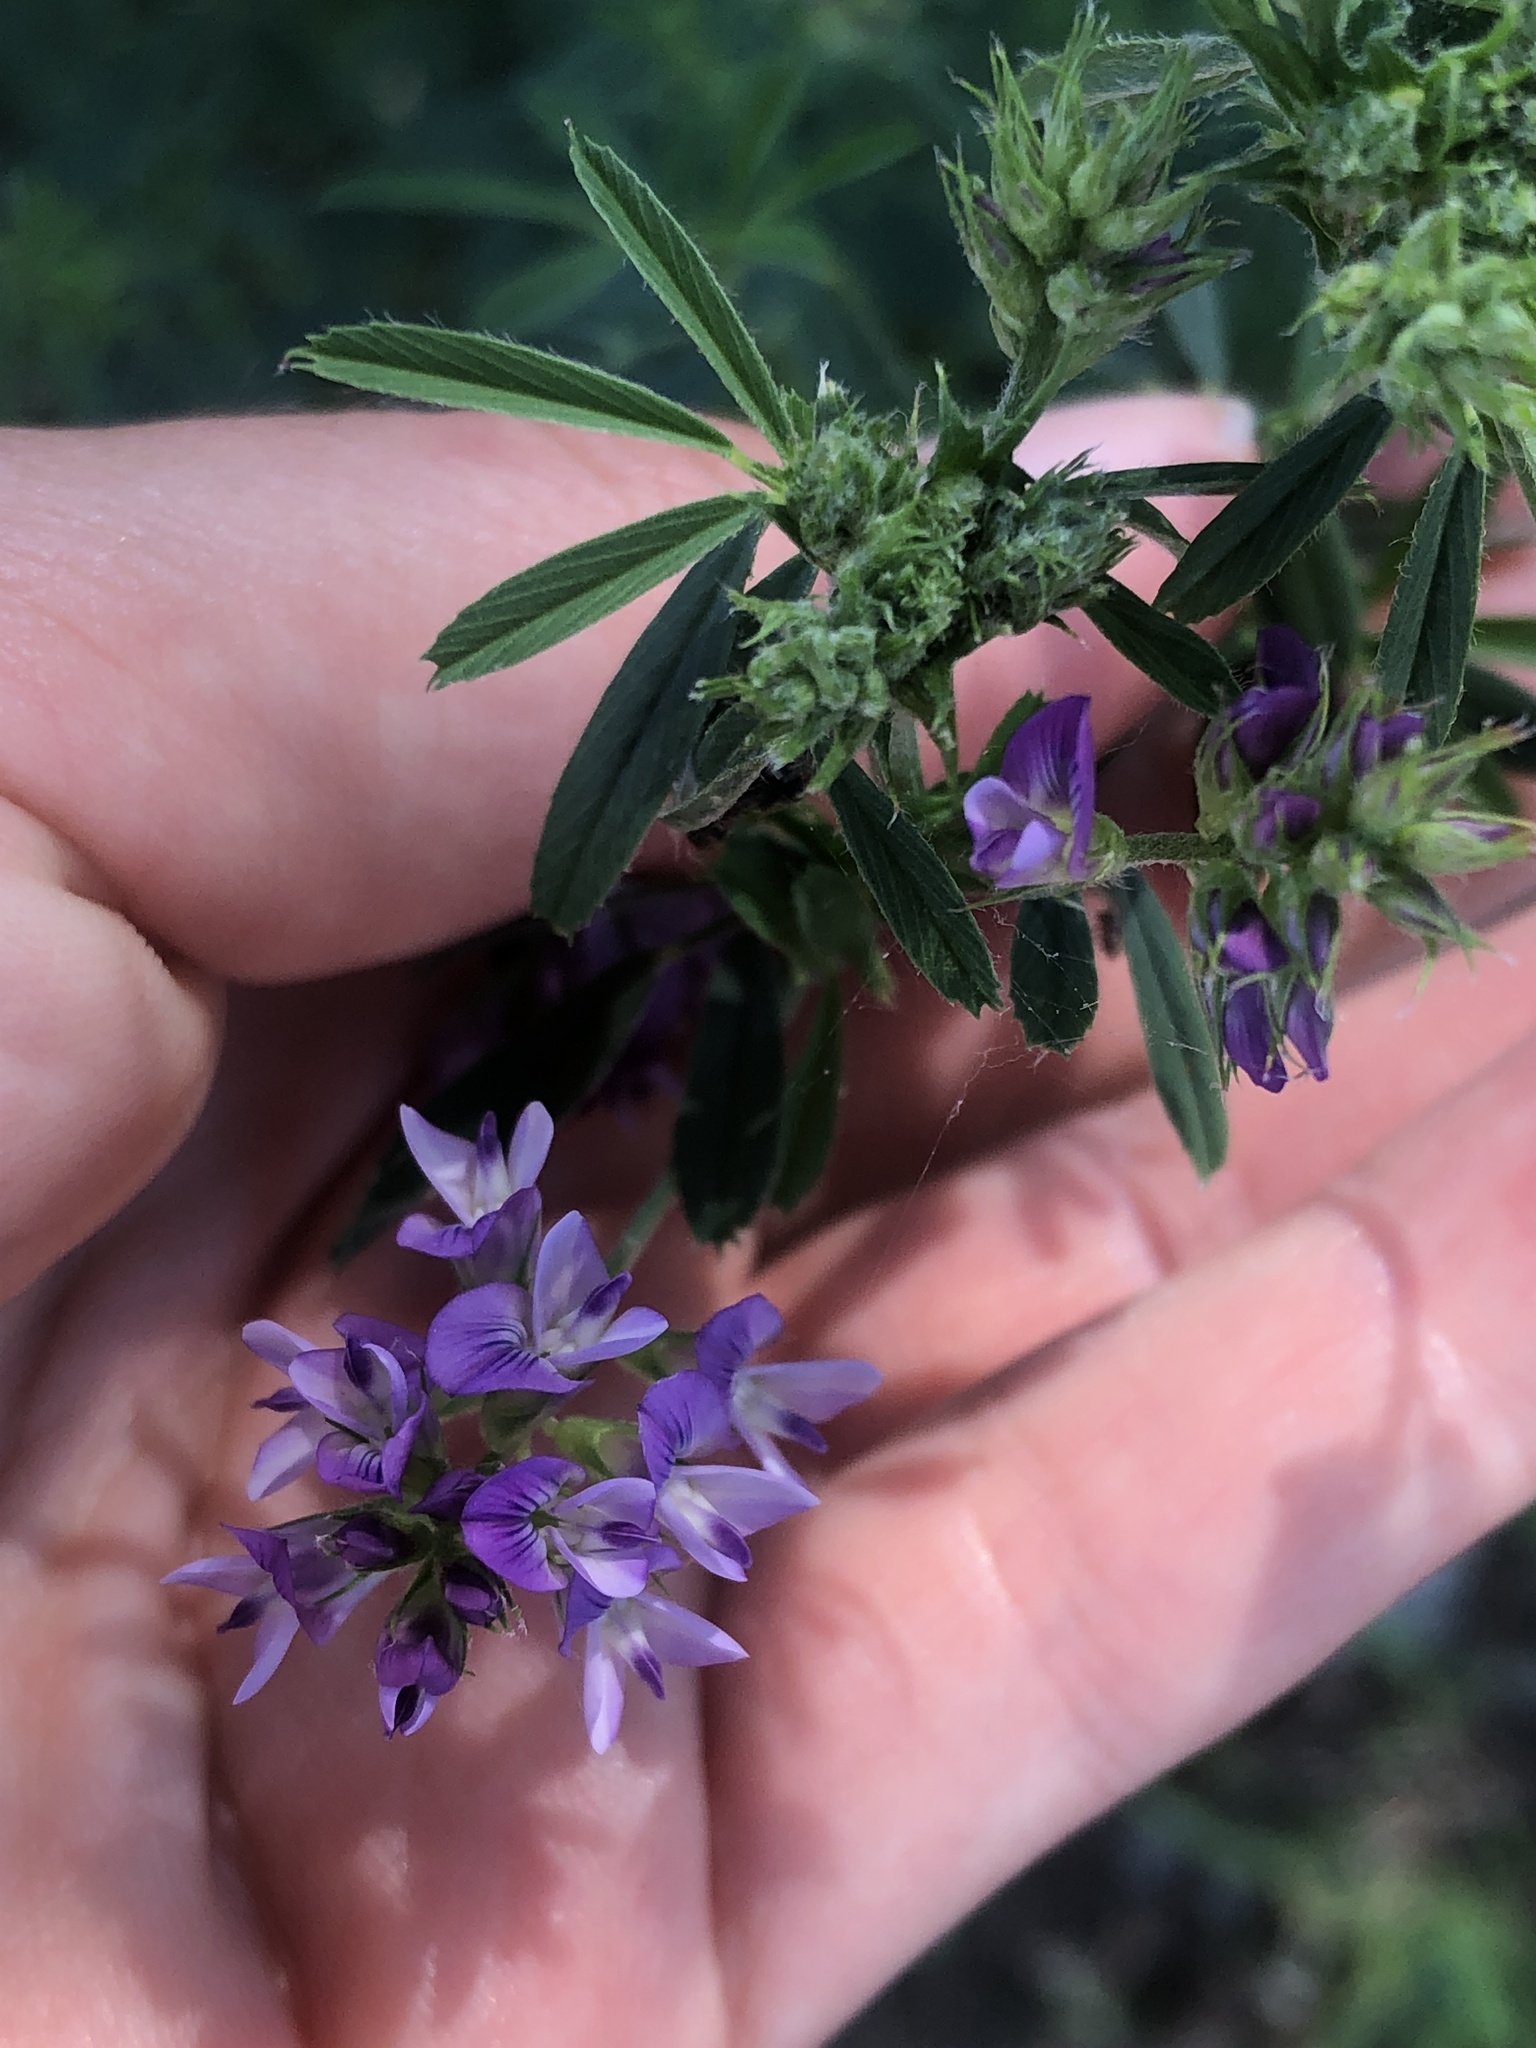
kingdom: Plantae
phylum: Tracheophyta
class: Magnoliopsida
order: Fabales
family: Fabaceae
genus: Medicago
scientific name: Medicago sativa
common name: Alfalfa
